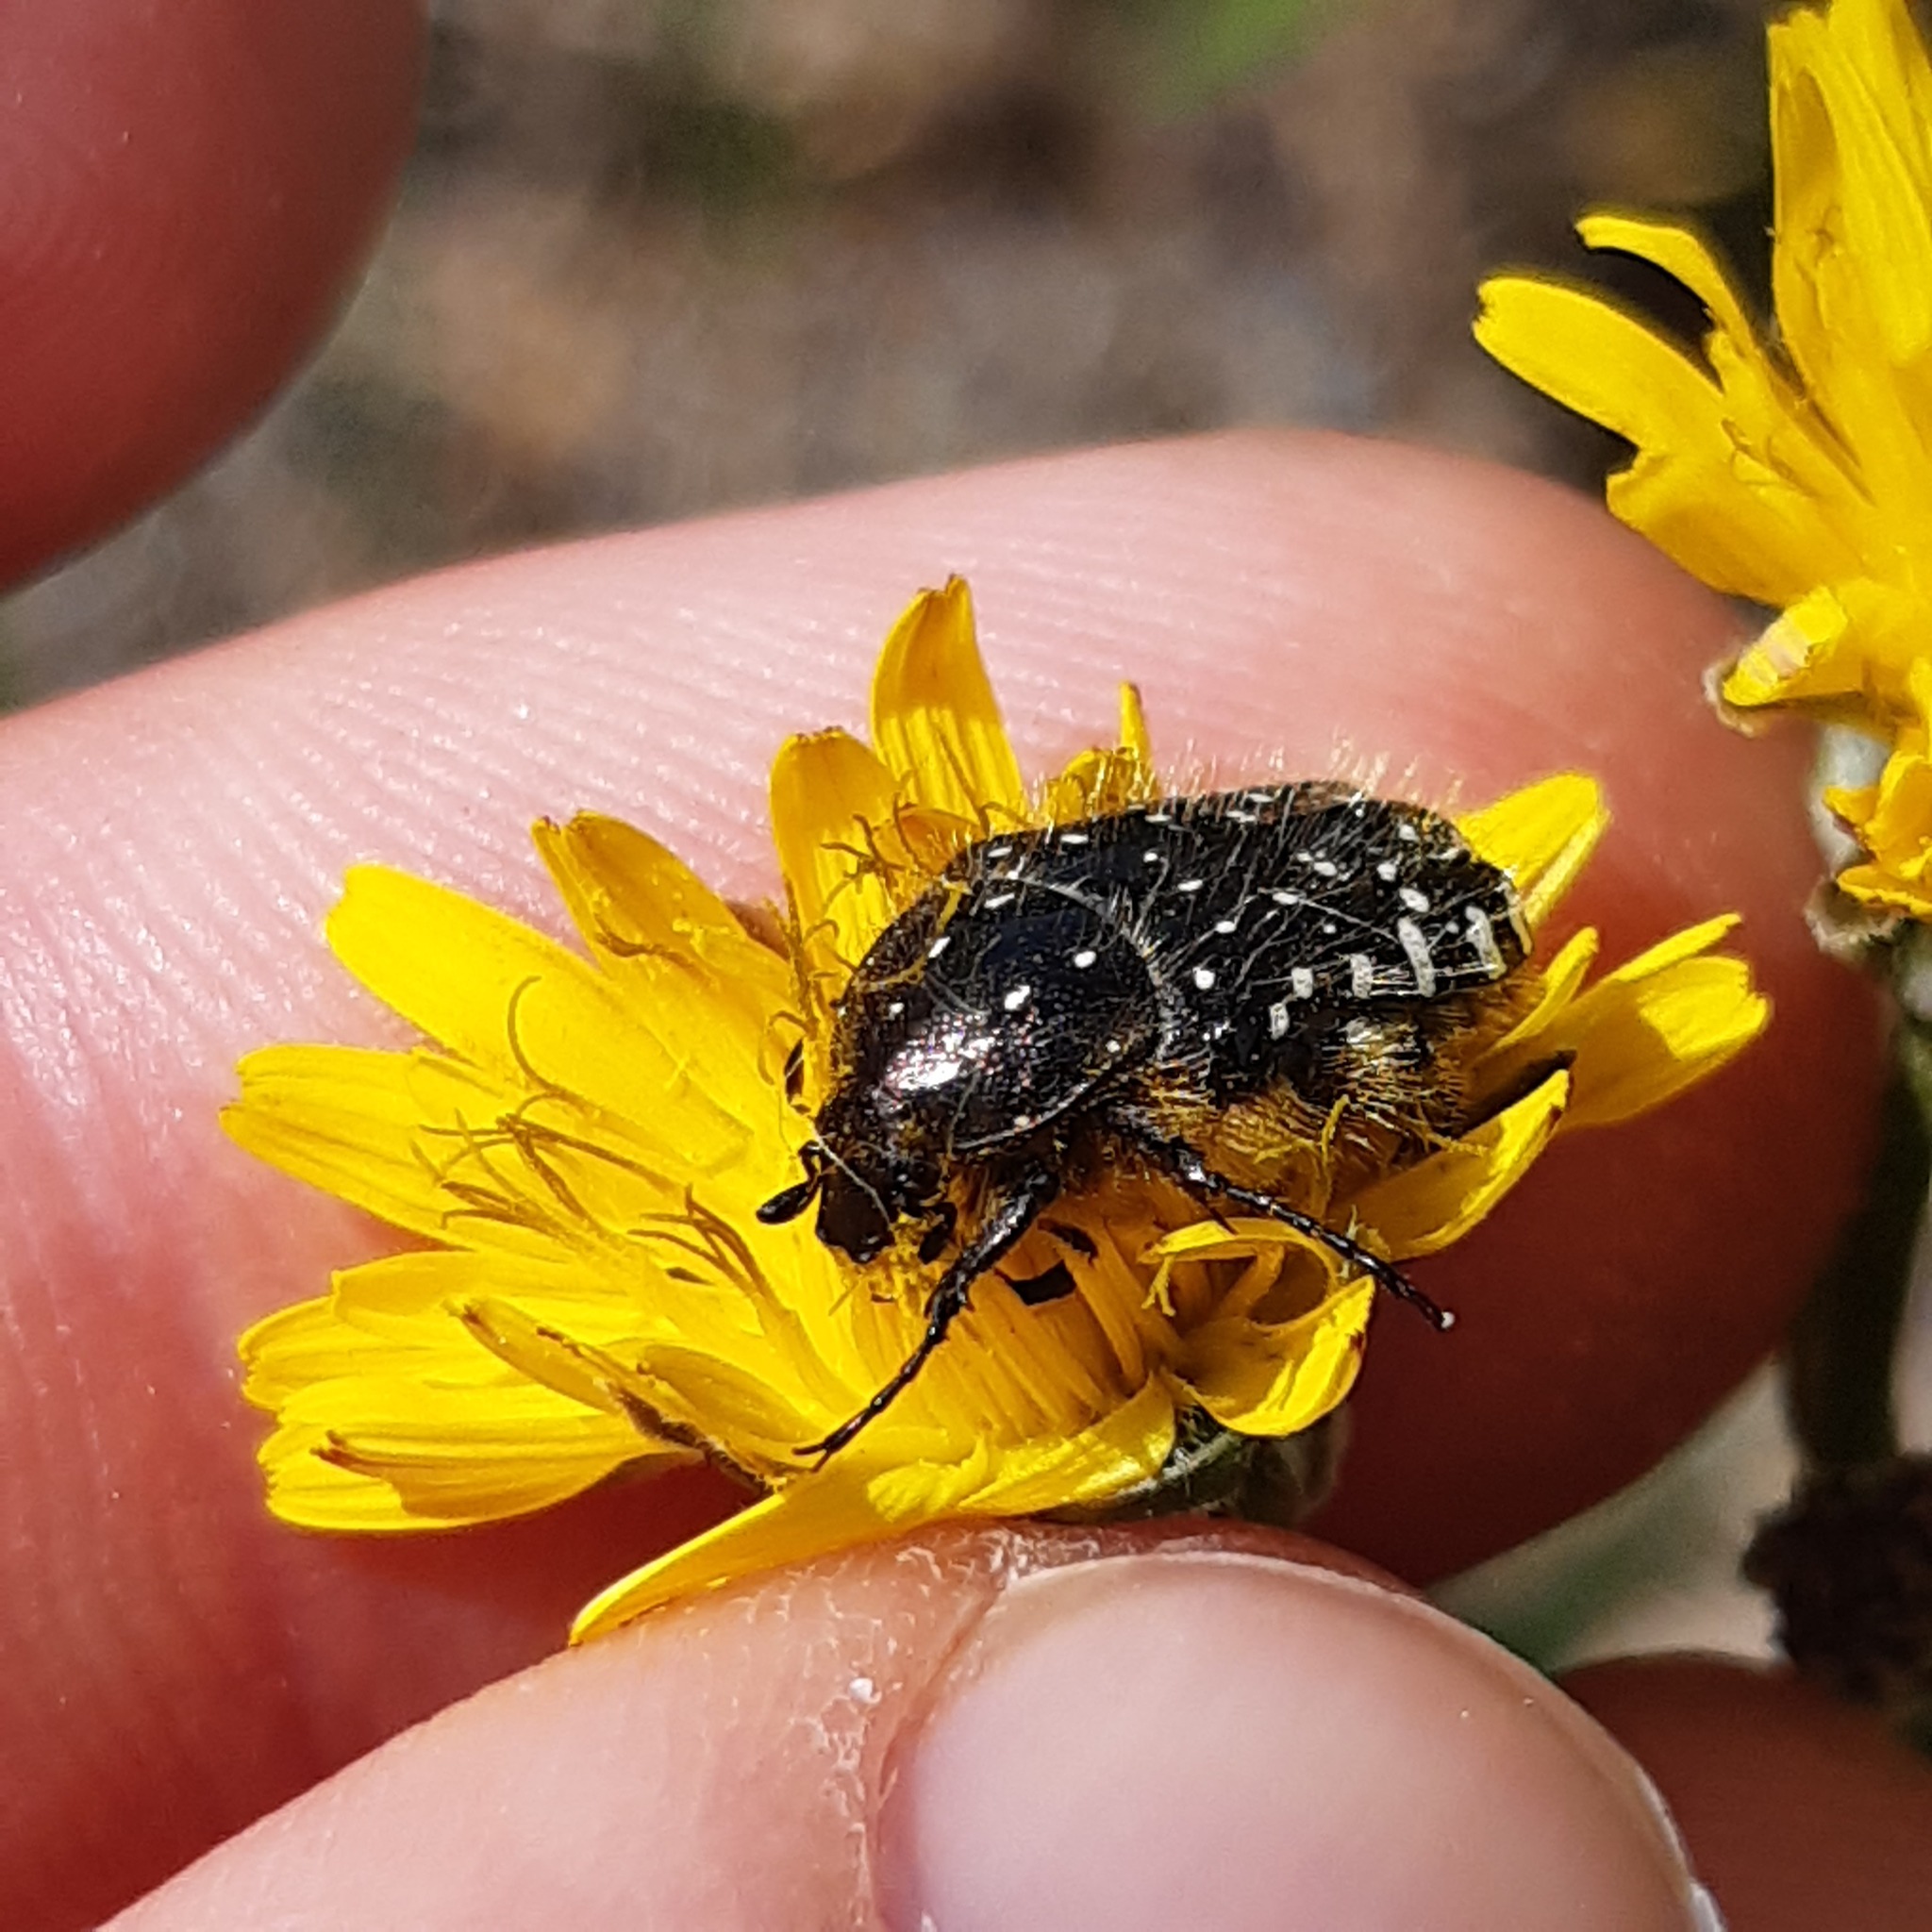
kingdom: Animalia
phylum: Arthropoda
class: Insecta
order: Coleoptera
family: Scarabaeidae
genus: Oxythyrea
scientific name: Oxythyrea funesta
